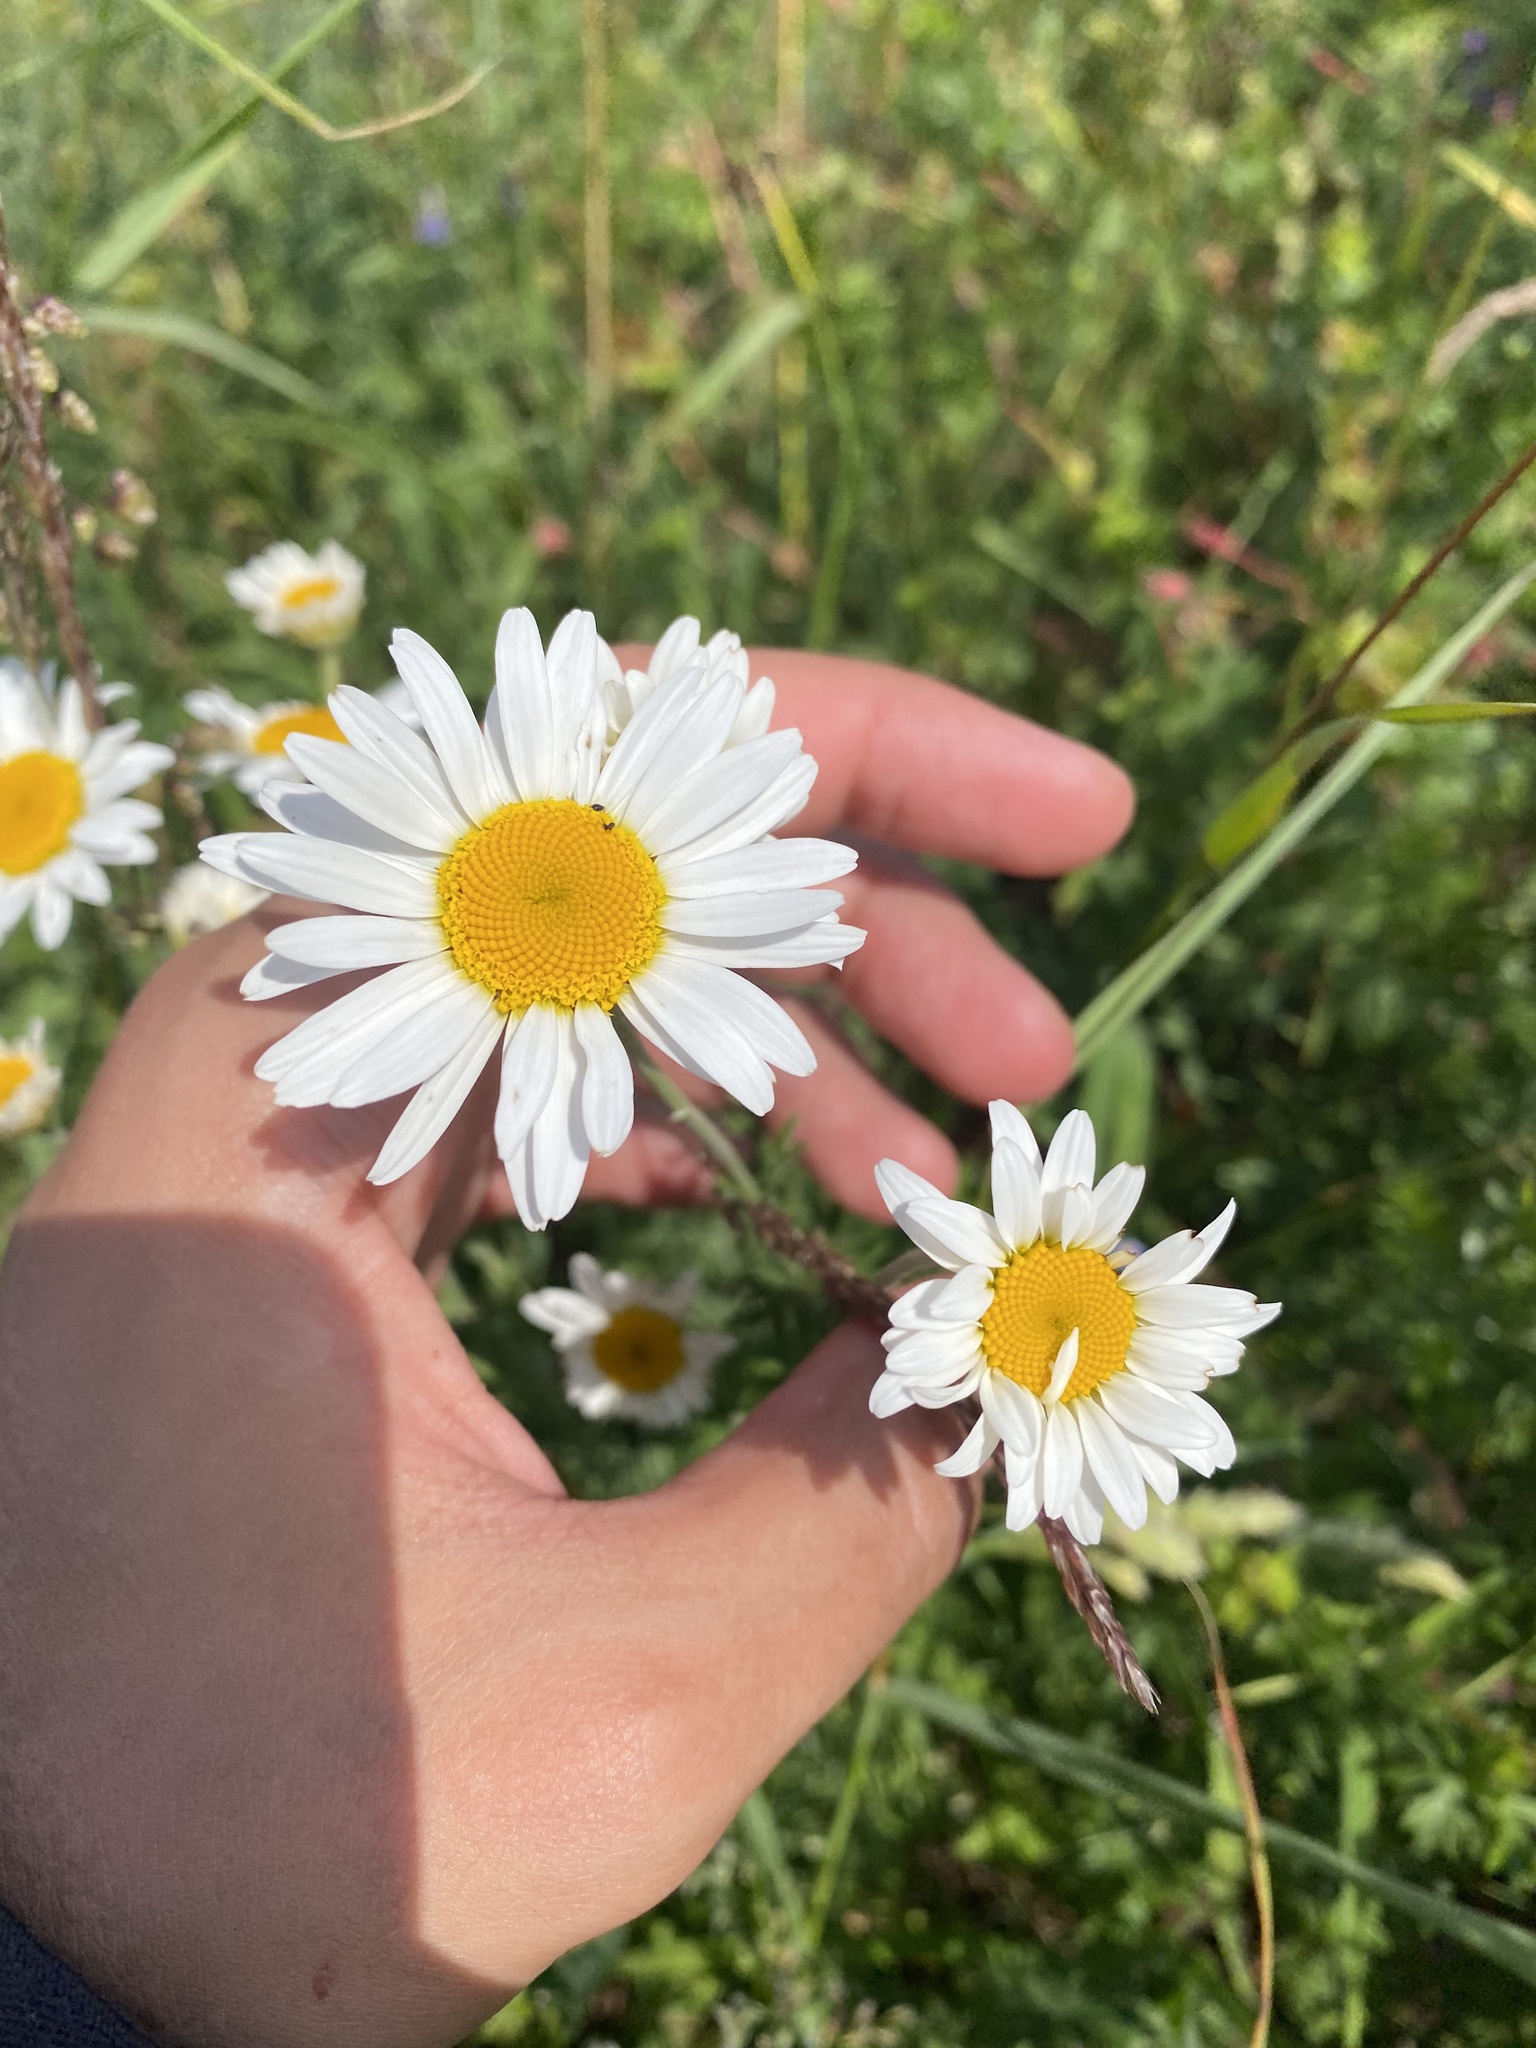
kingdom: Plantae
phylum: Tracheophyta
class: Magnoliopsida
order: Asterales
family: Asteraceae
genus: Cota
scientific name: Cota triumfetti
